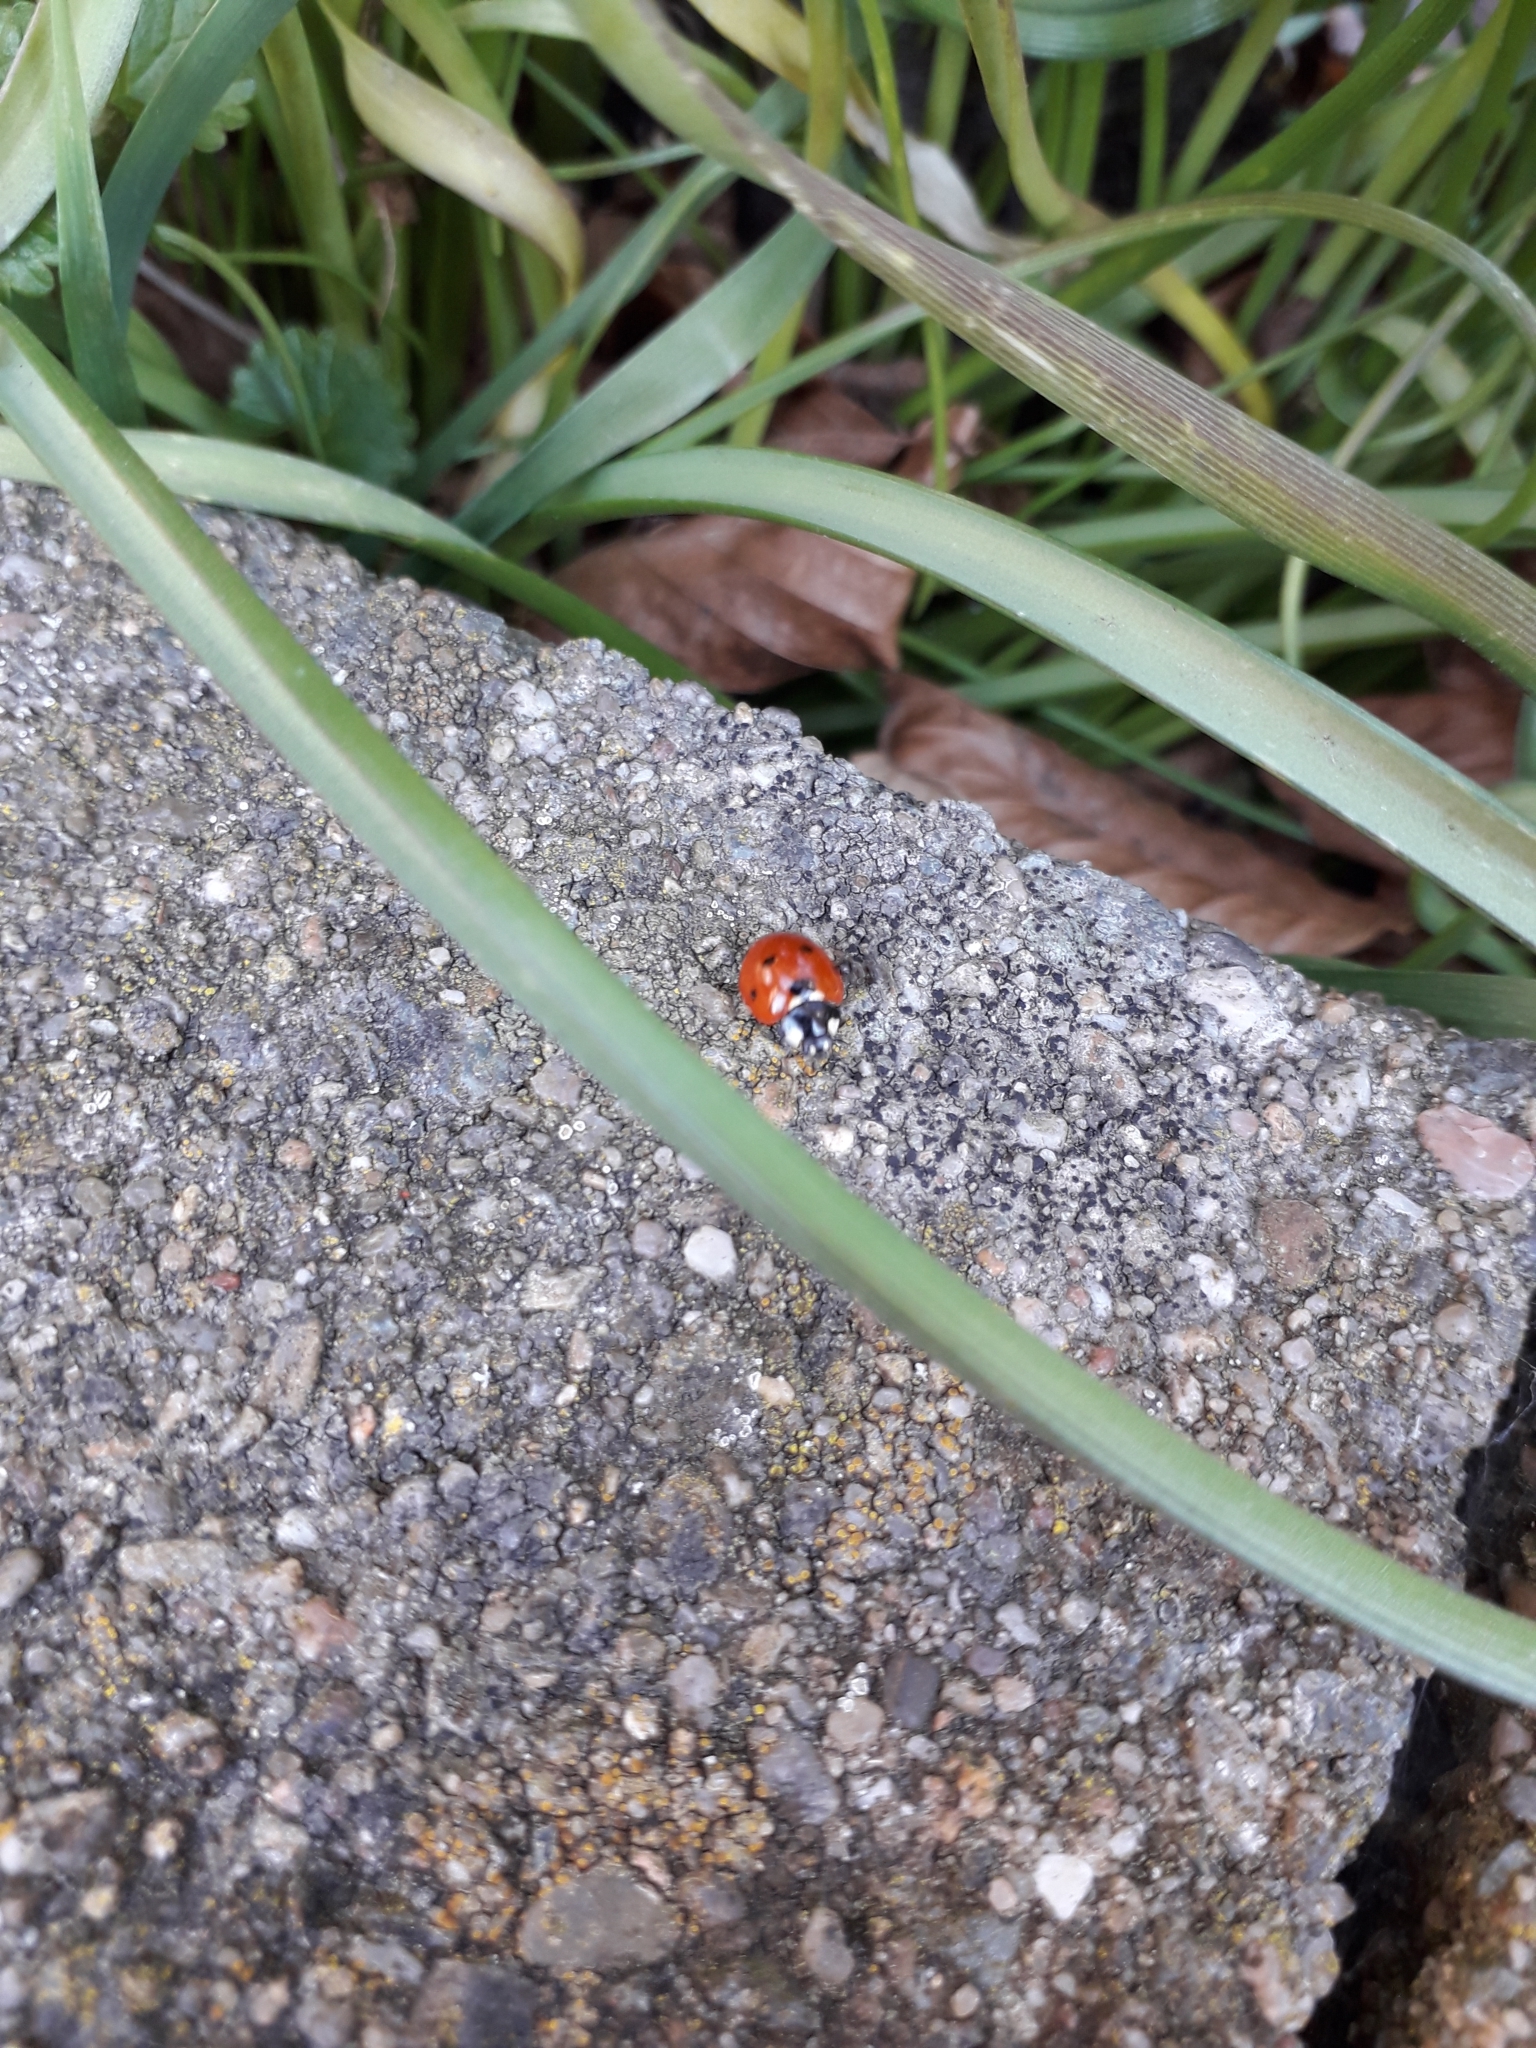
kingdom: Animalia
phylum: Arthropoda
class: Insecta
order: Coleoptera
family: Coccinellidae
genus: Coccinella
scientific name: Coccinella septempunctata
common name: Sevenspotted lady beetle
